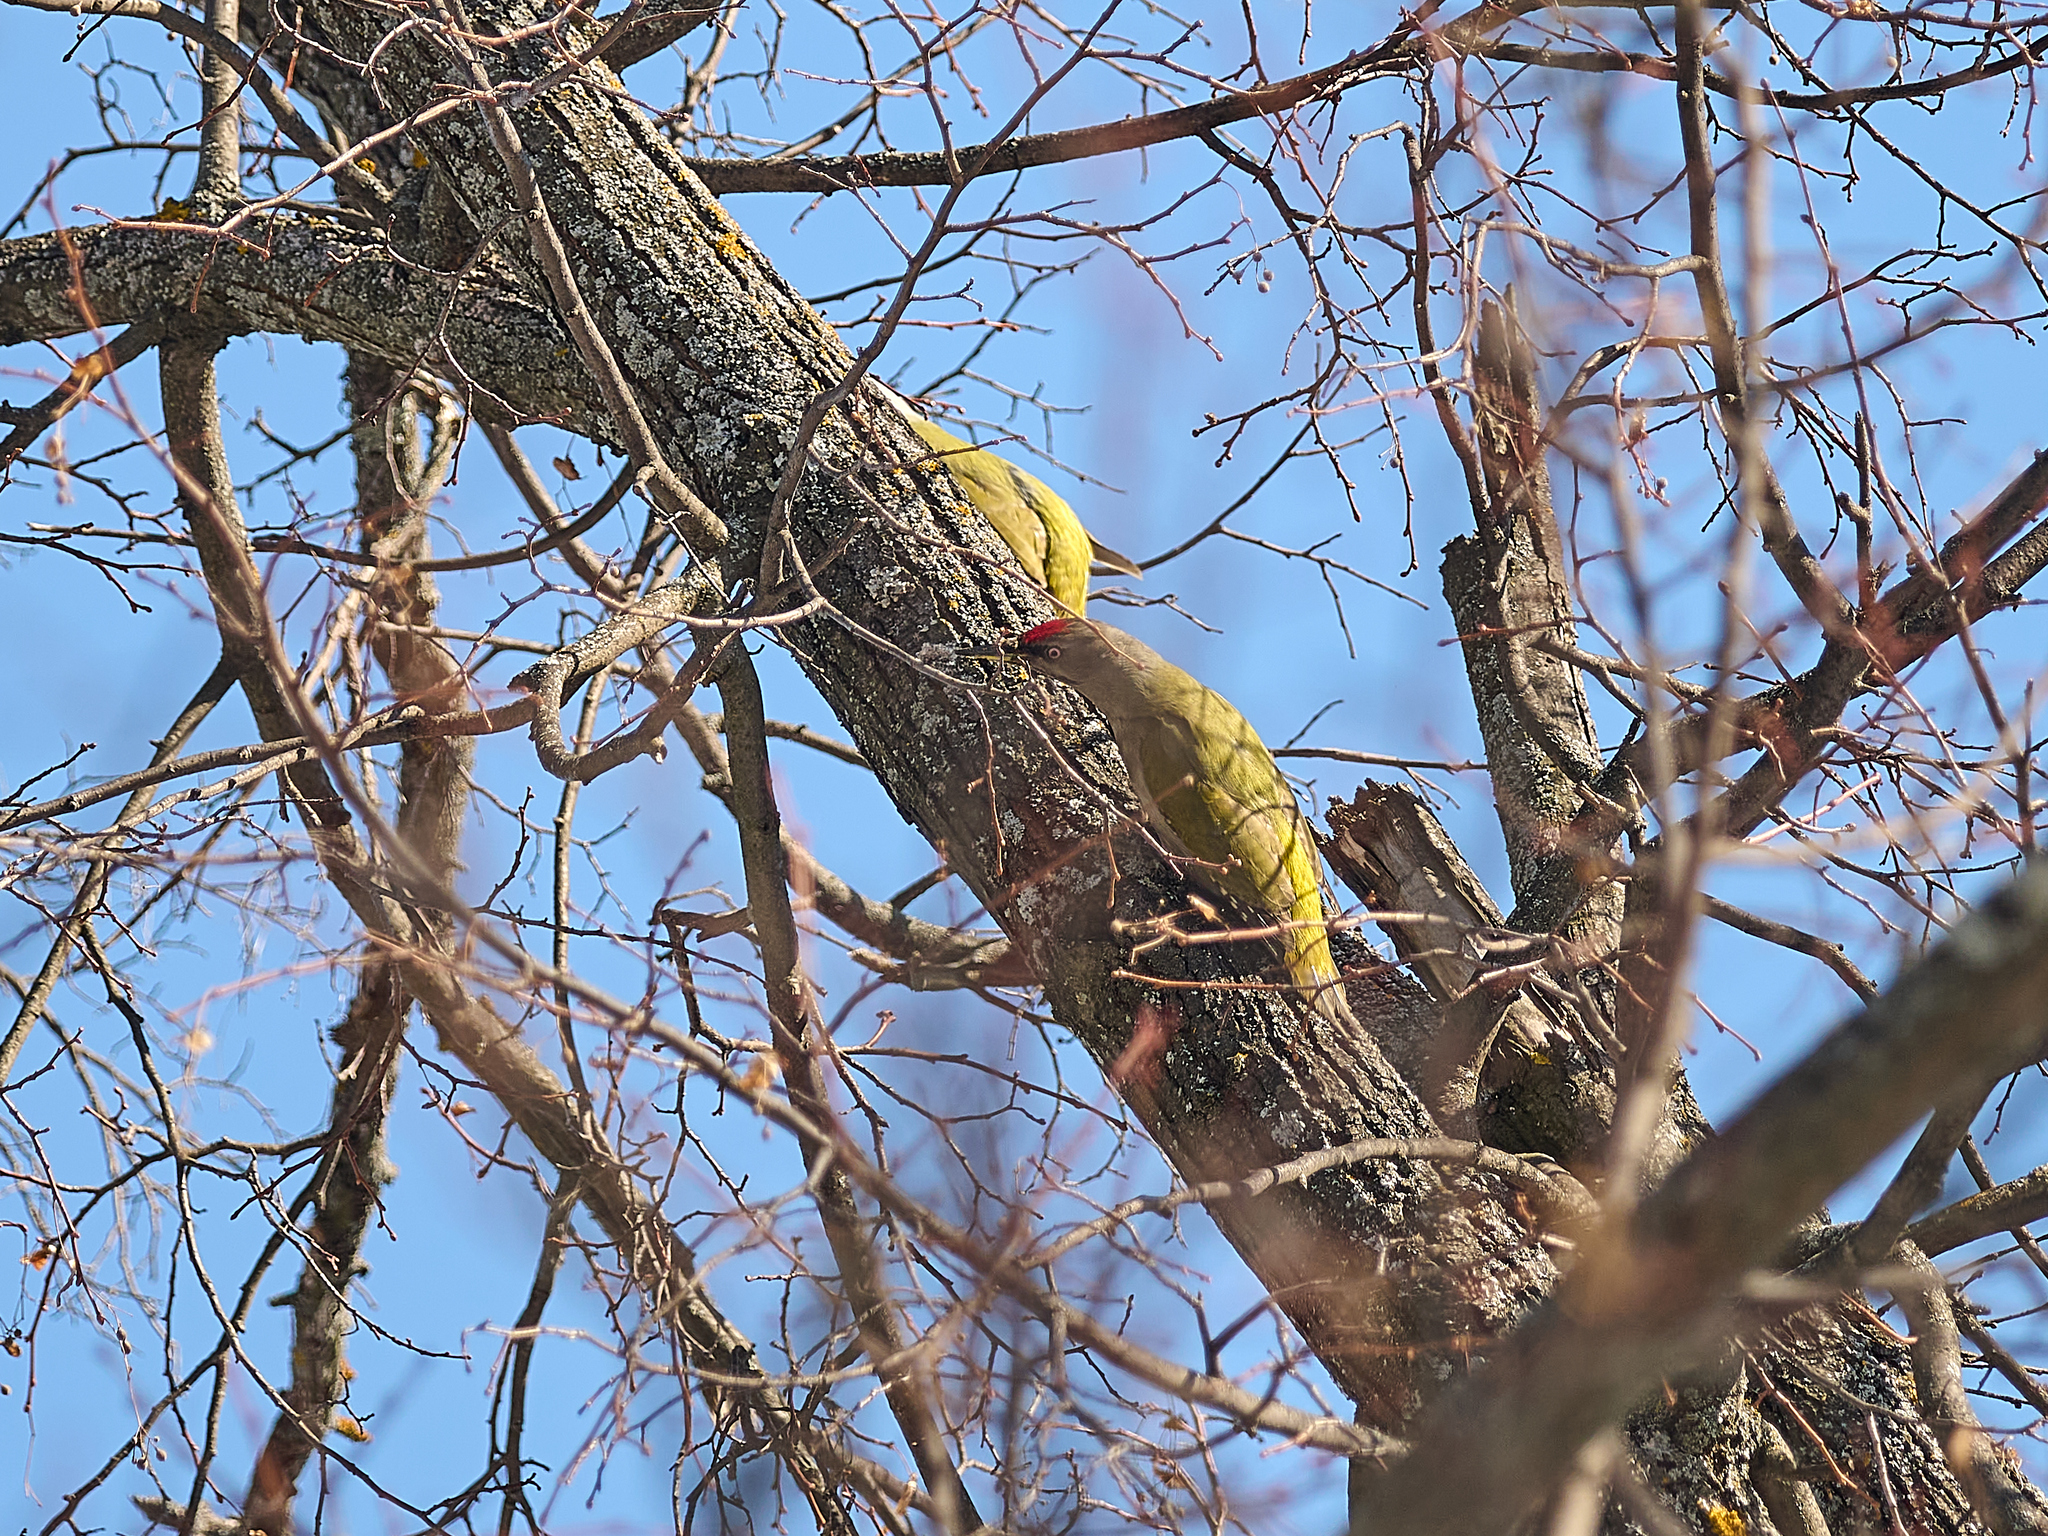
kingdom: Animalia
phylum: Chordata
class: Aves
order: Piciformes
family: Picidae
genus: Picus
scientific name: Picus canus
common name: Grey-headed woodpecker
